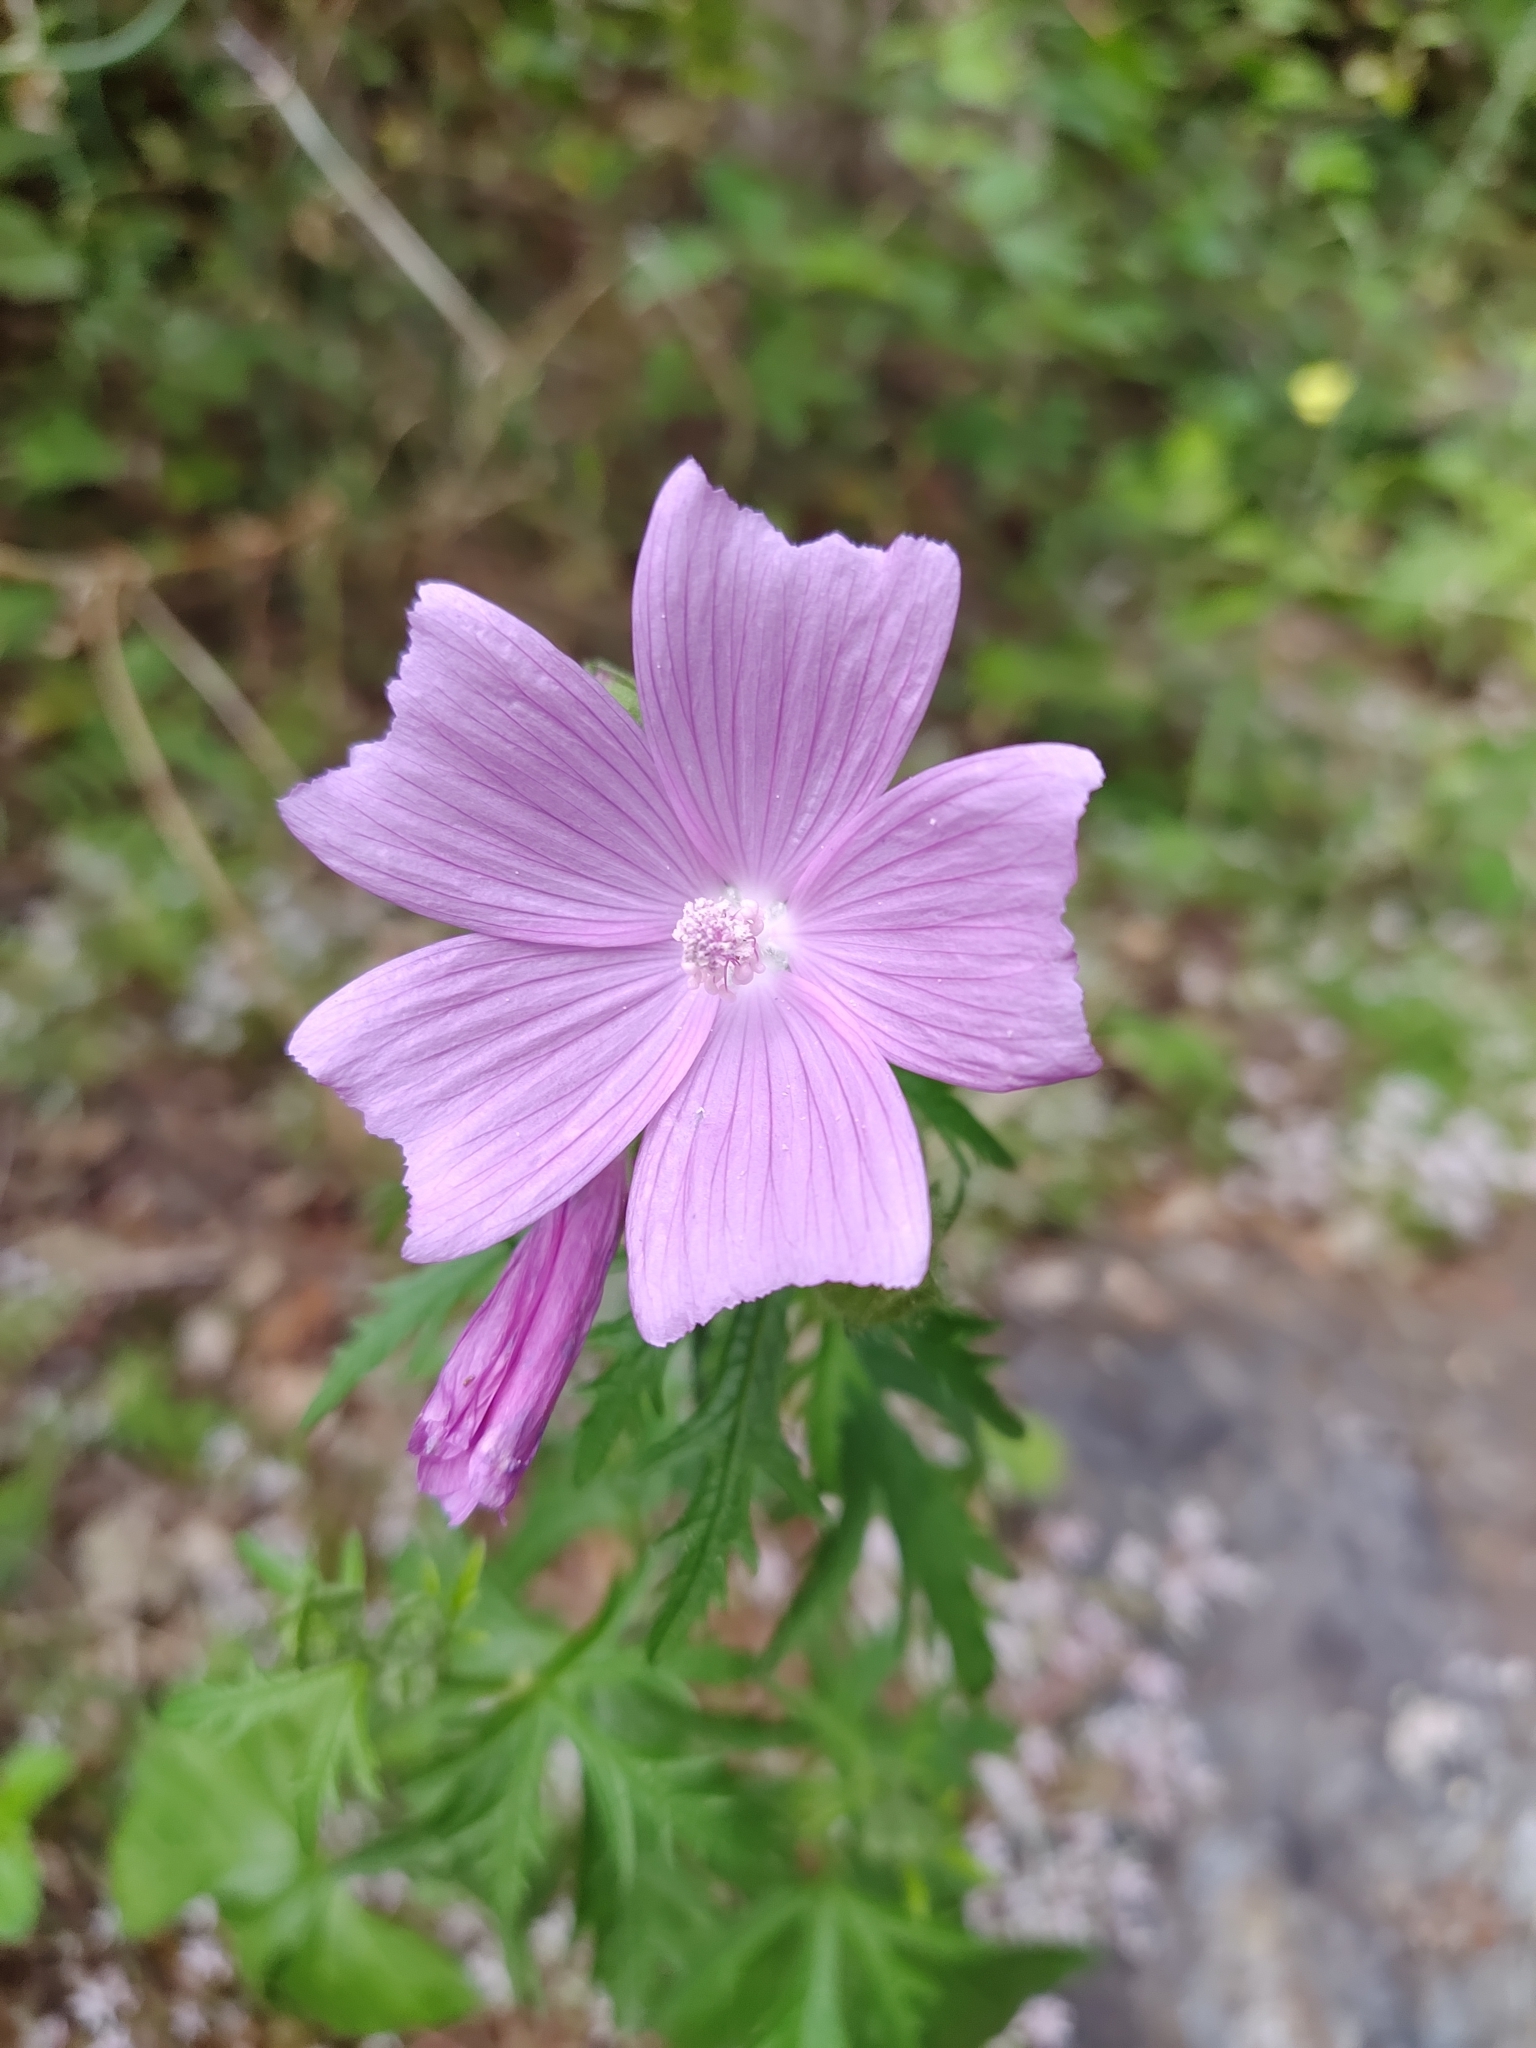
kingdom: Plantae
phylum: Tracheophyta
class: Magnoliopsida
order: Malvales
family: Malvaceae
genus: Malva
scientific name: Malva tournefortiana
